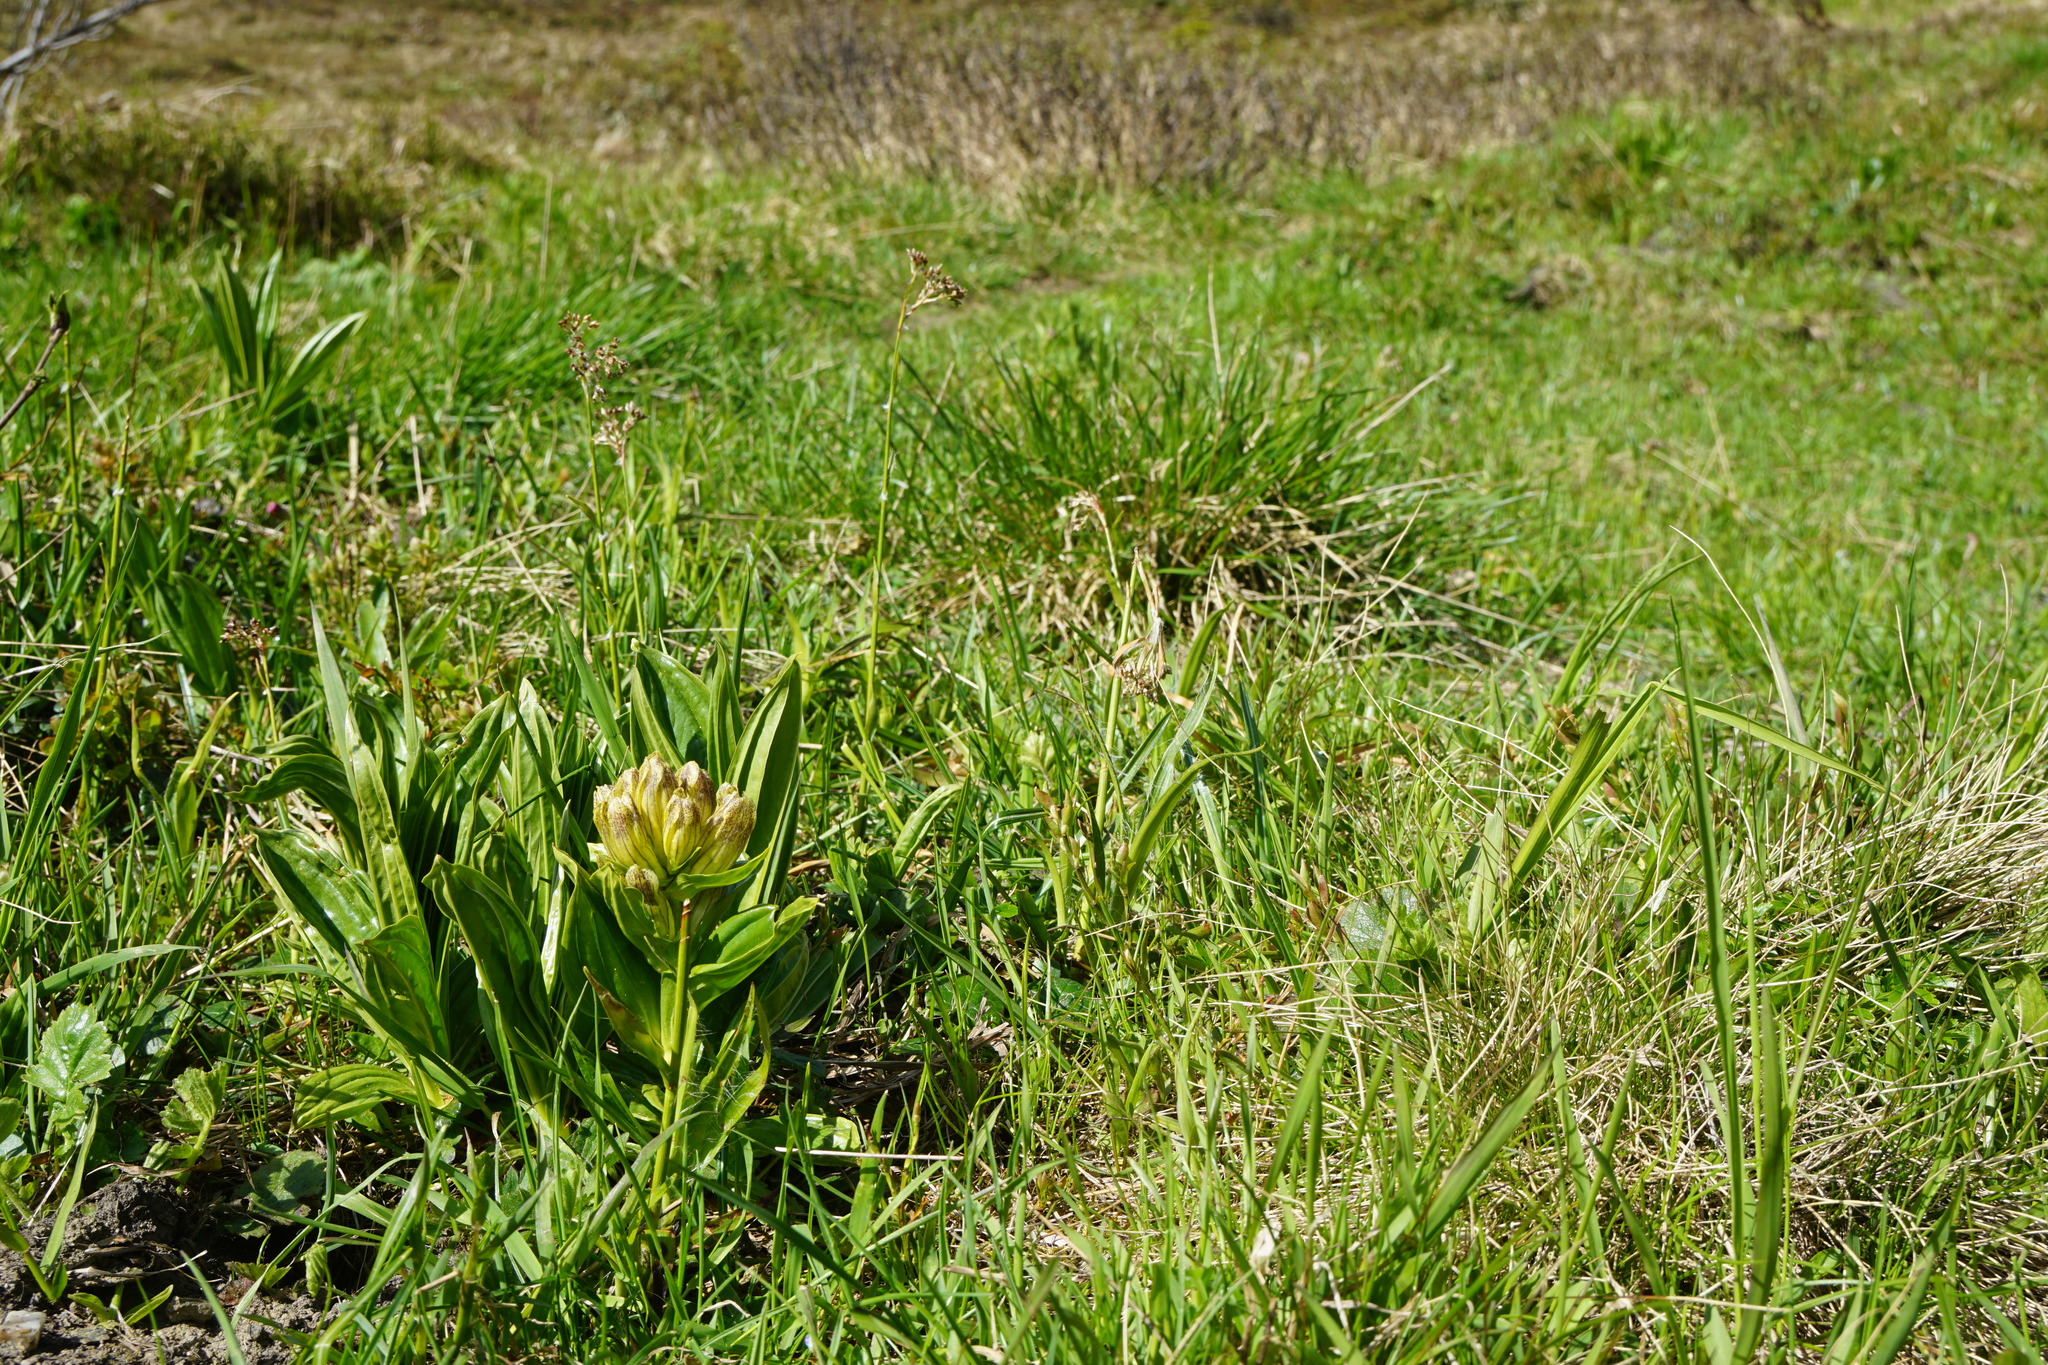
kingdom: Plantae
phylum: Tracheophyta
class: Magnoliopsida
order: Gentianales
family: Gentianaceae
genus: Gentiana
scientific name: Gentiana punctata
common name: Spotted gentian
